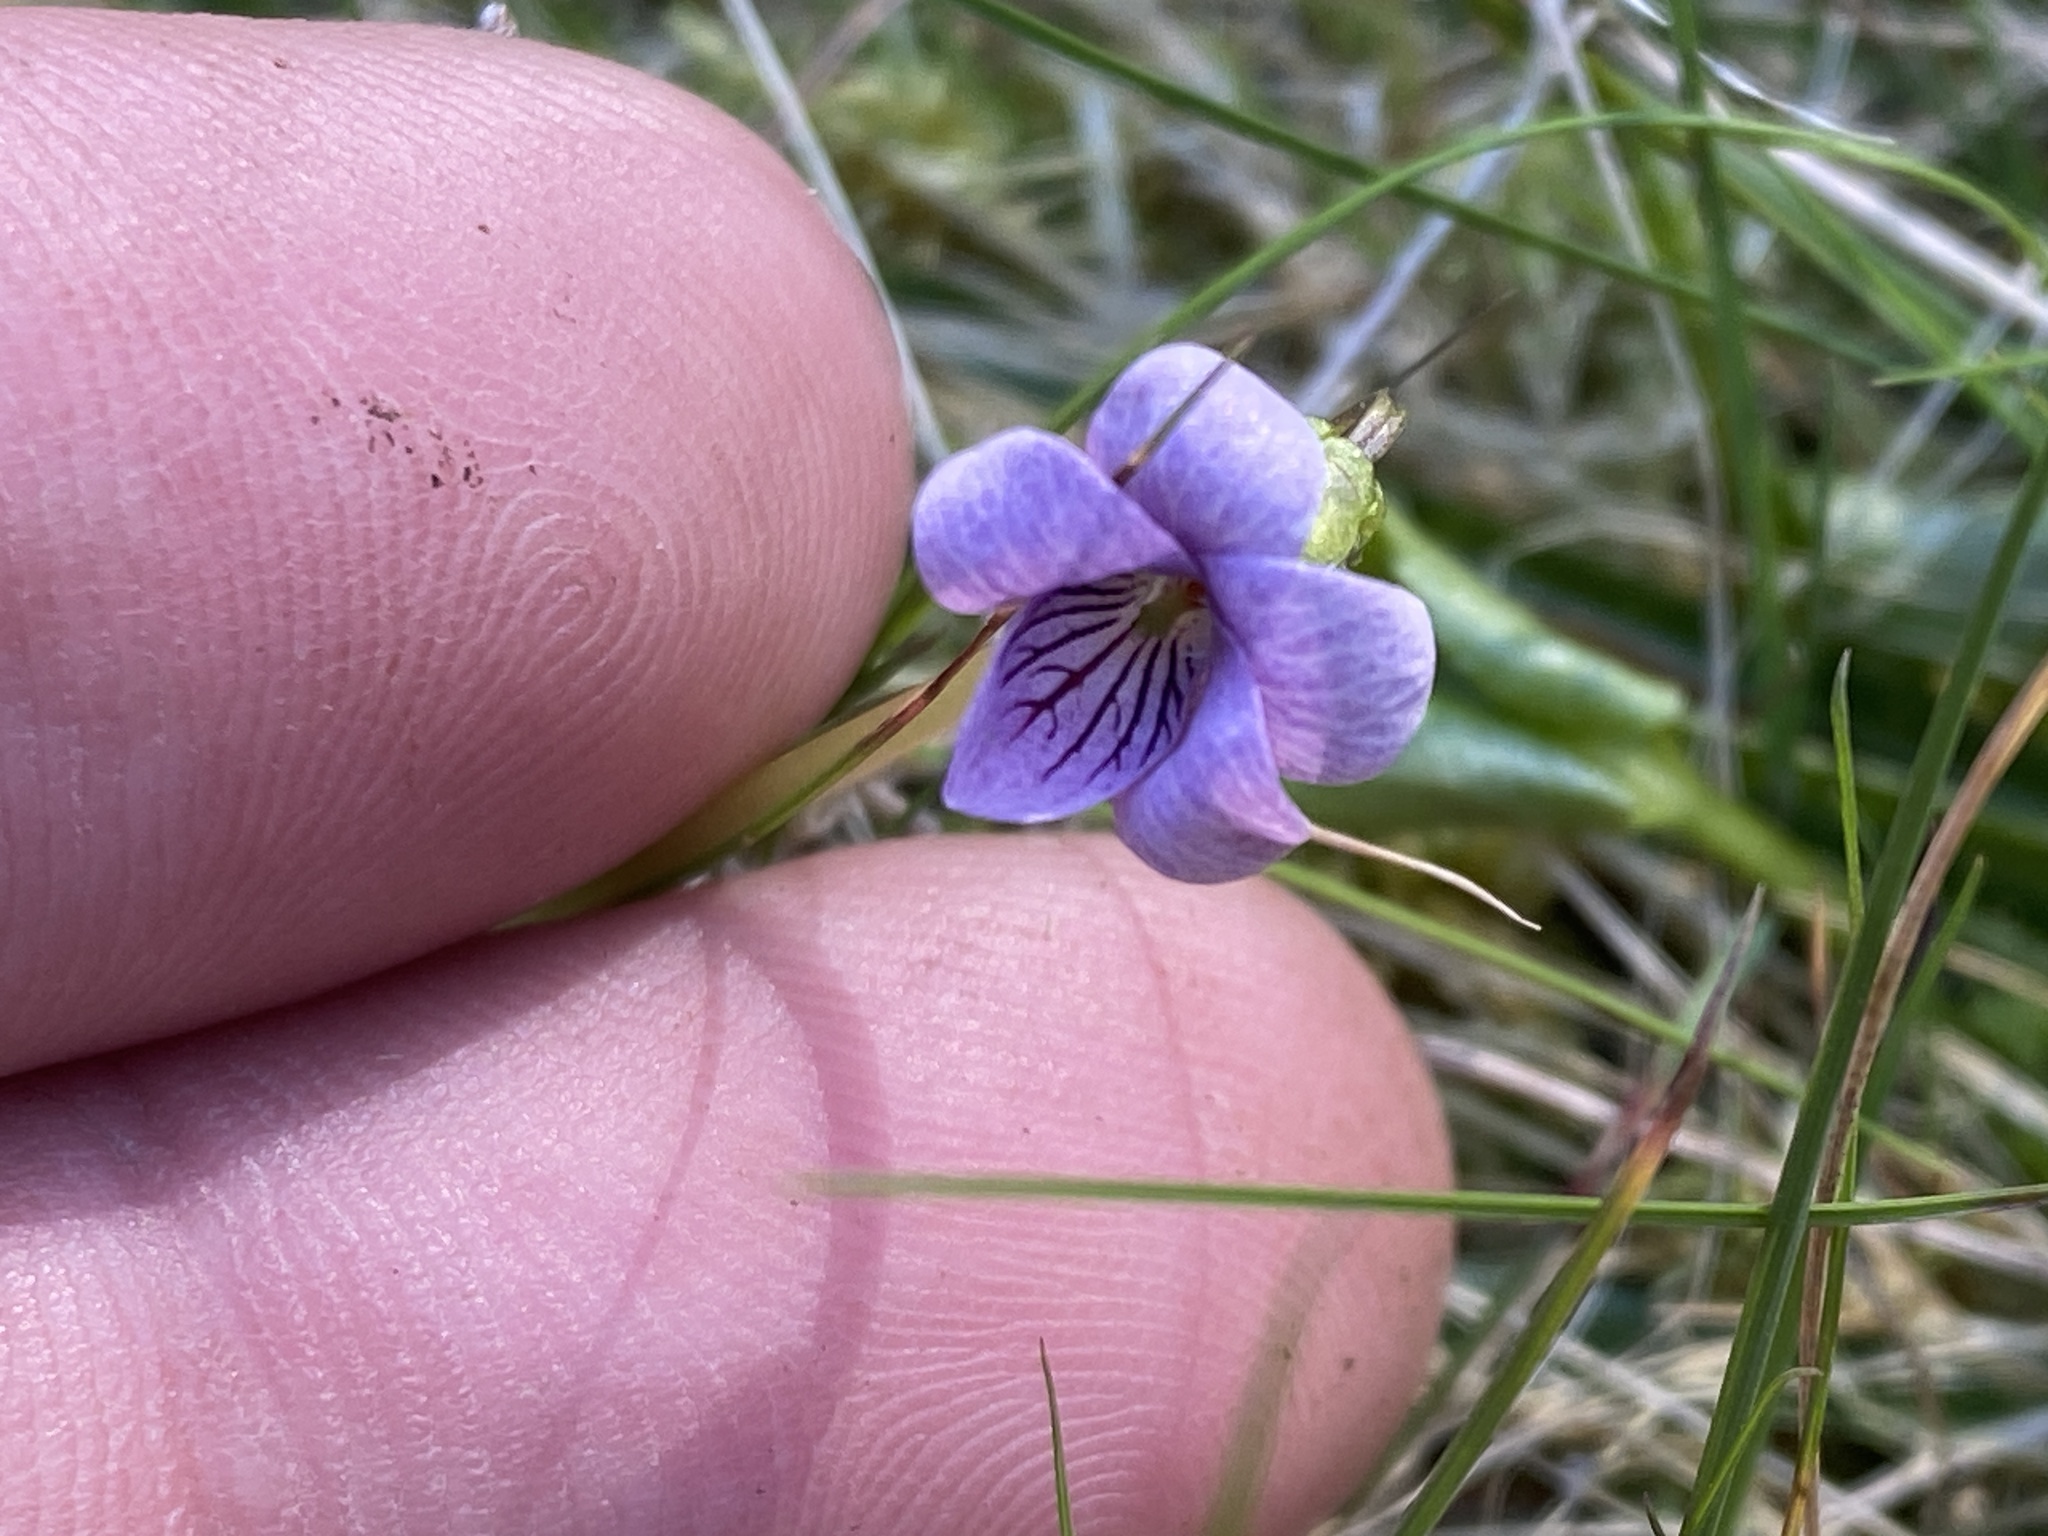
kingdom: Plantae
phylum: Tracheophyta
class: Magnoliopsida
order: Malpighiales
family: Violaceae
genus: Viola
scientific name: Viola palustris
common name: Marsh violet
